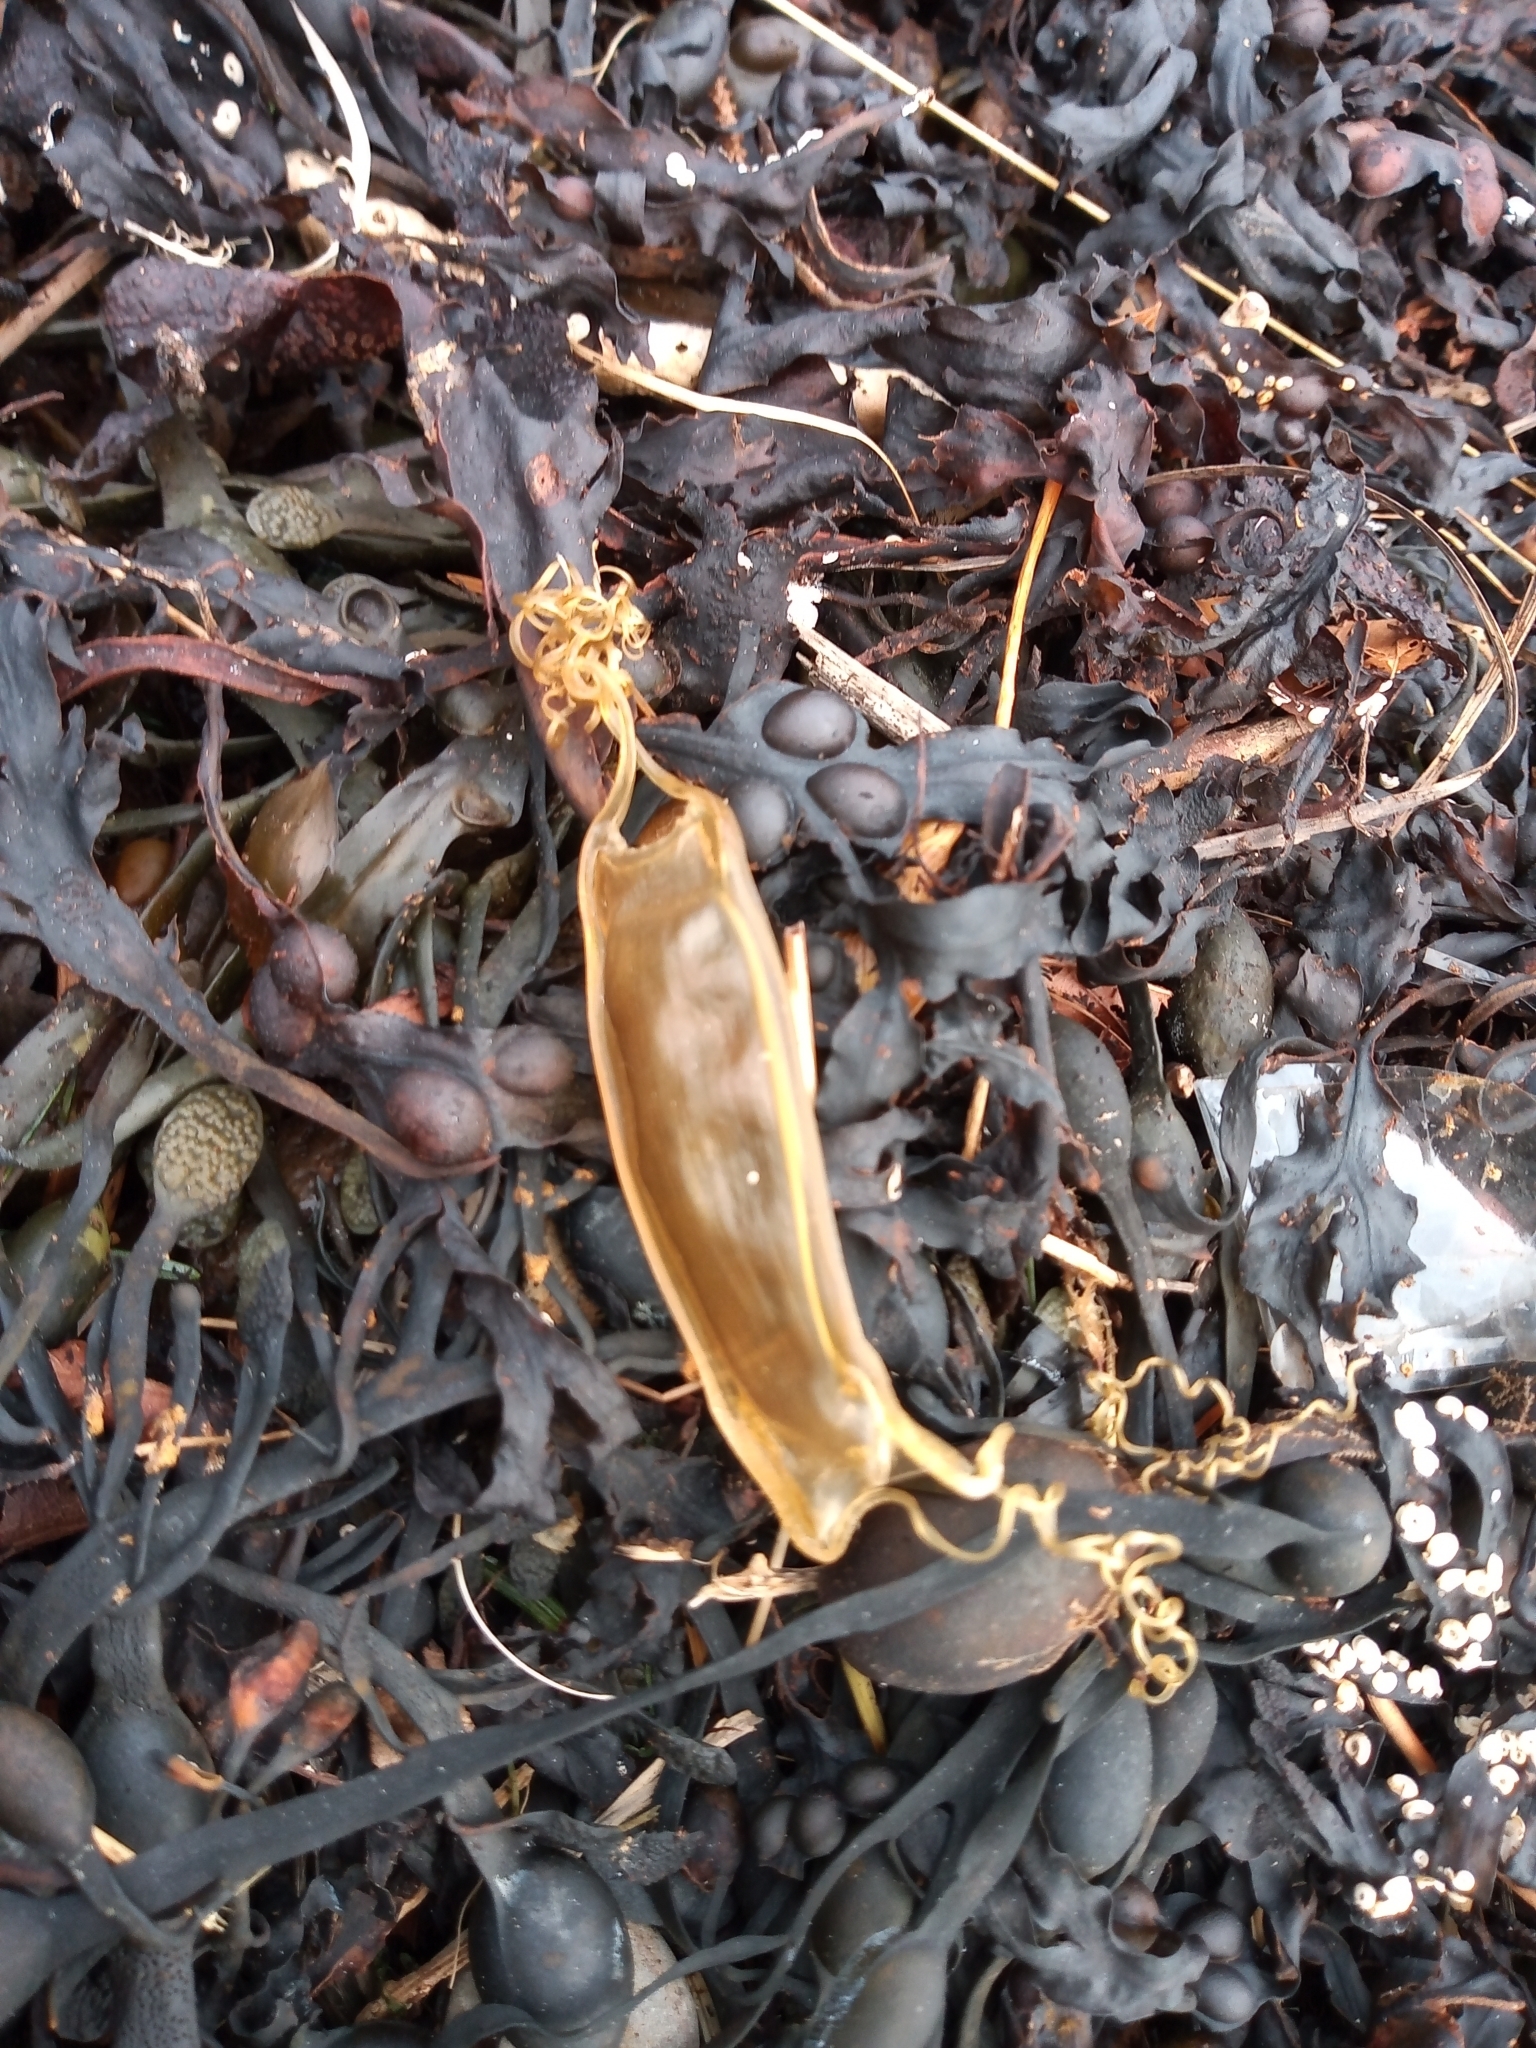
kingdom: Animalia
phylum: Chordata
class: Elasmobranchii
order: Carcharhiniformes
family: Scyliorhinidae
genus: Scyliorhinus
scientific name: Scyliorhinus canicula
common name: Lesser spotted dogfish
